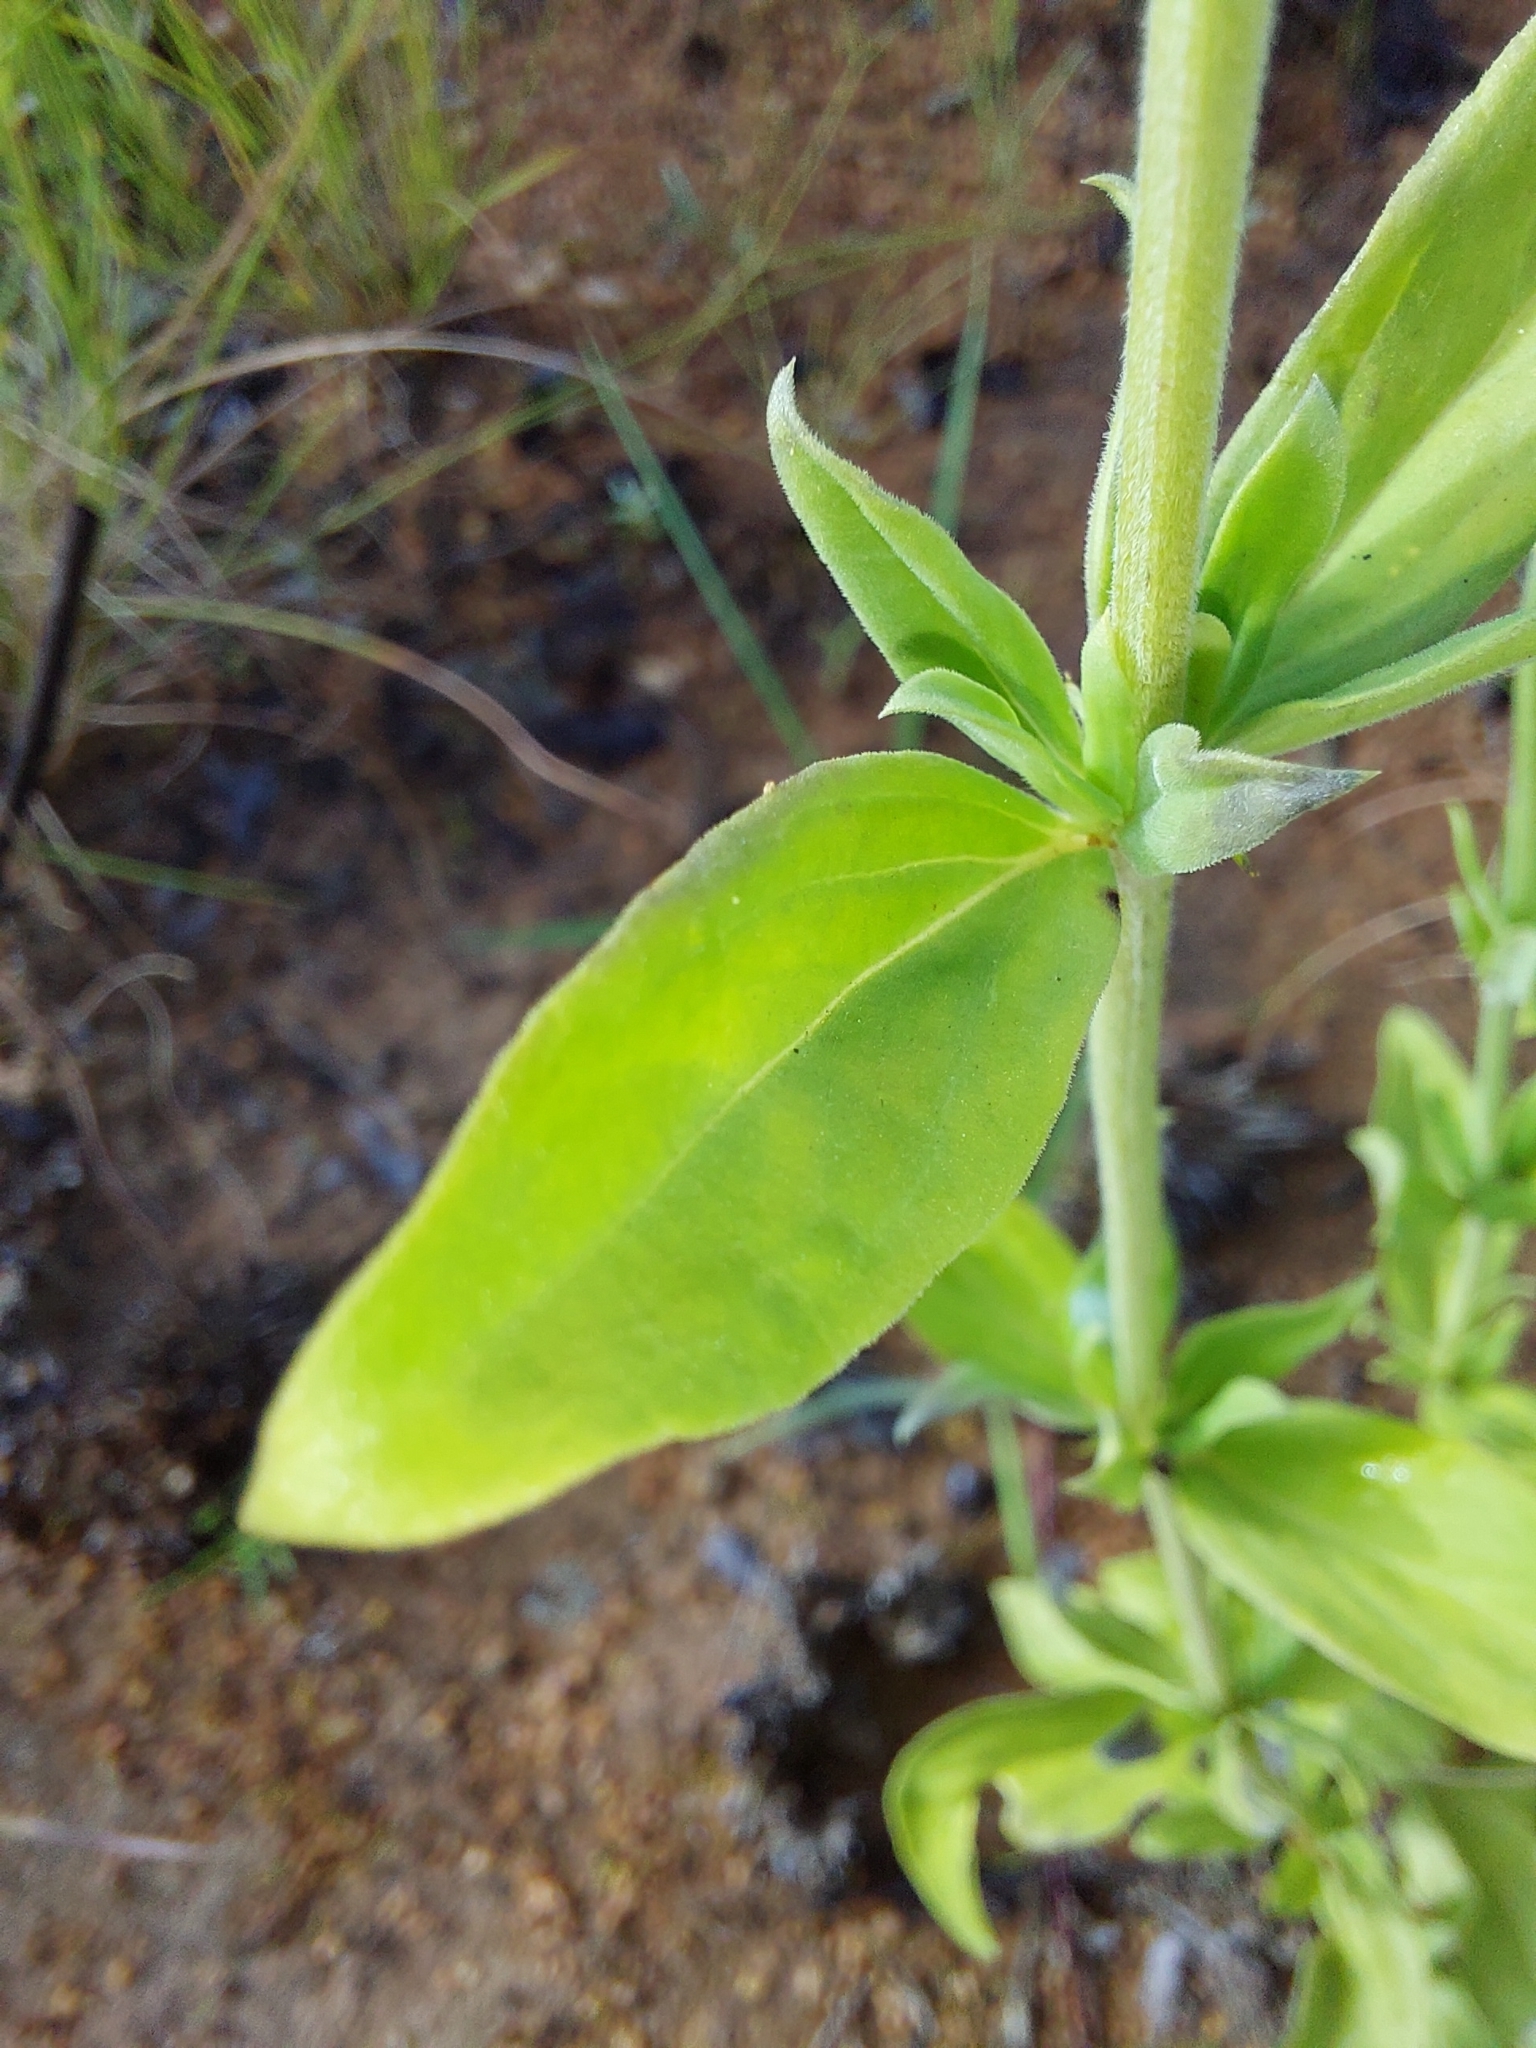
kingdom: Plantae
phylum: Tracheophyta
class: Magnoliopsida
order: Gentianales
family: Rubiaceae
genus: Agathisanthemum
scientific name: Agathisanthemum bojeri
